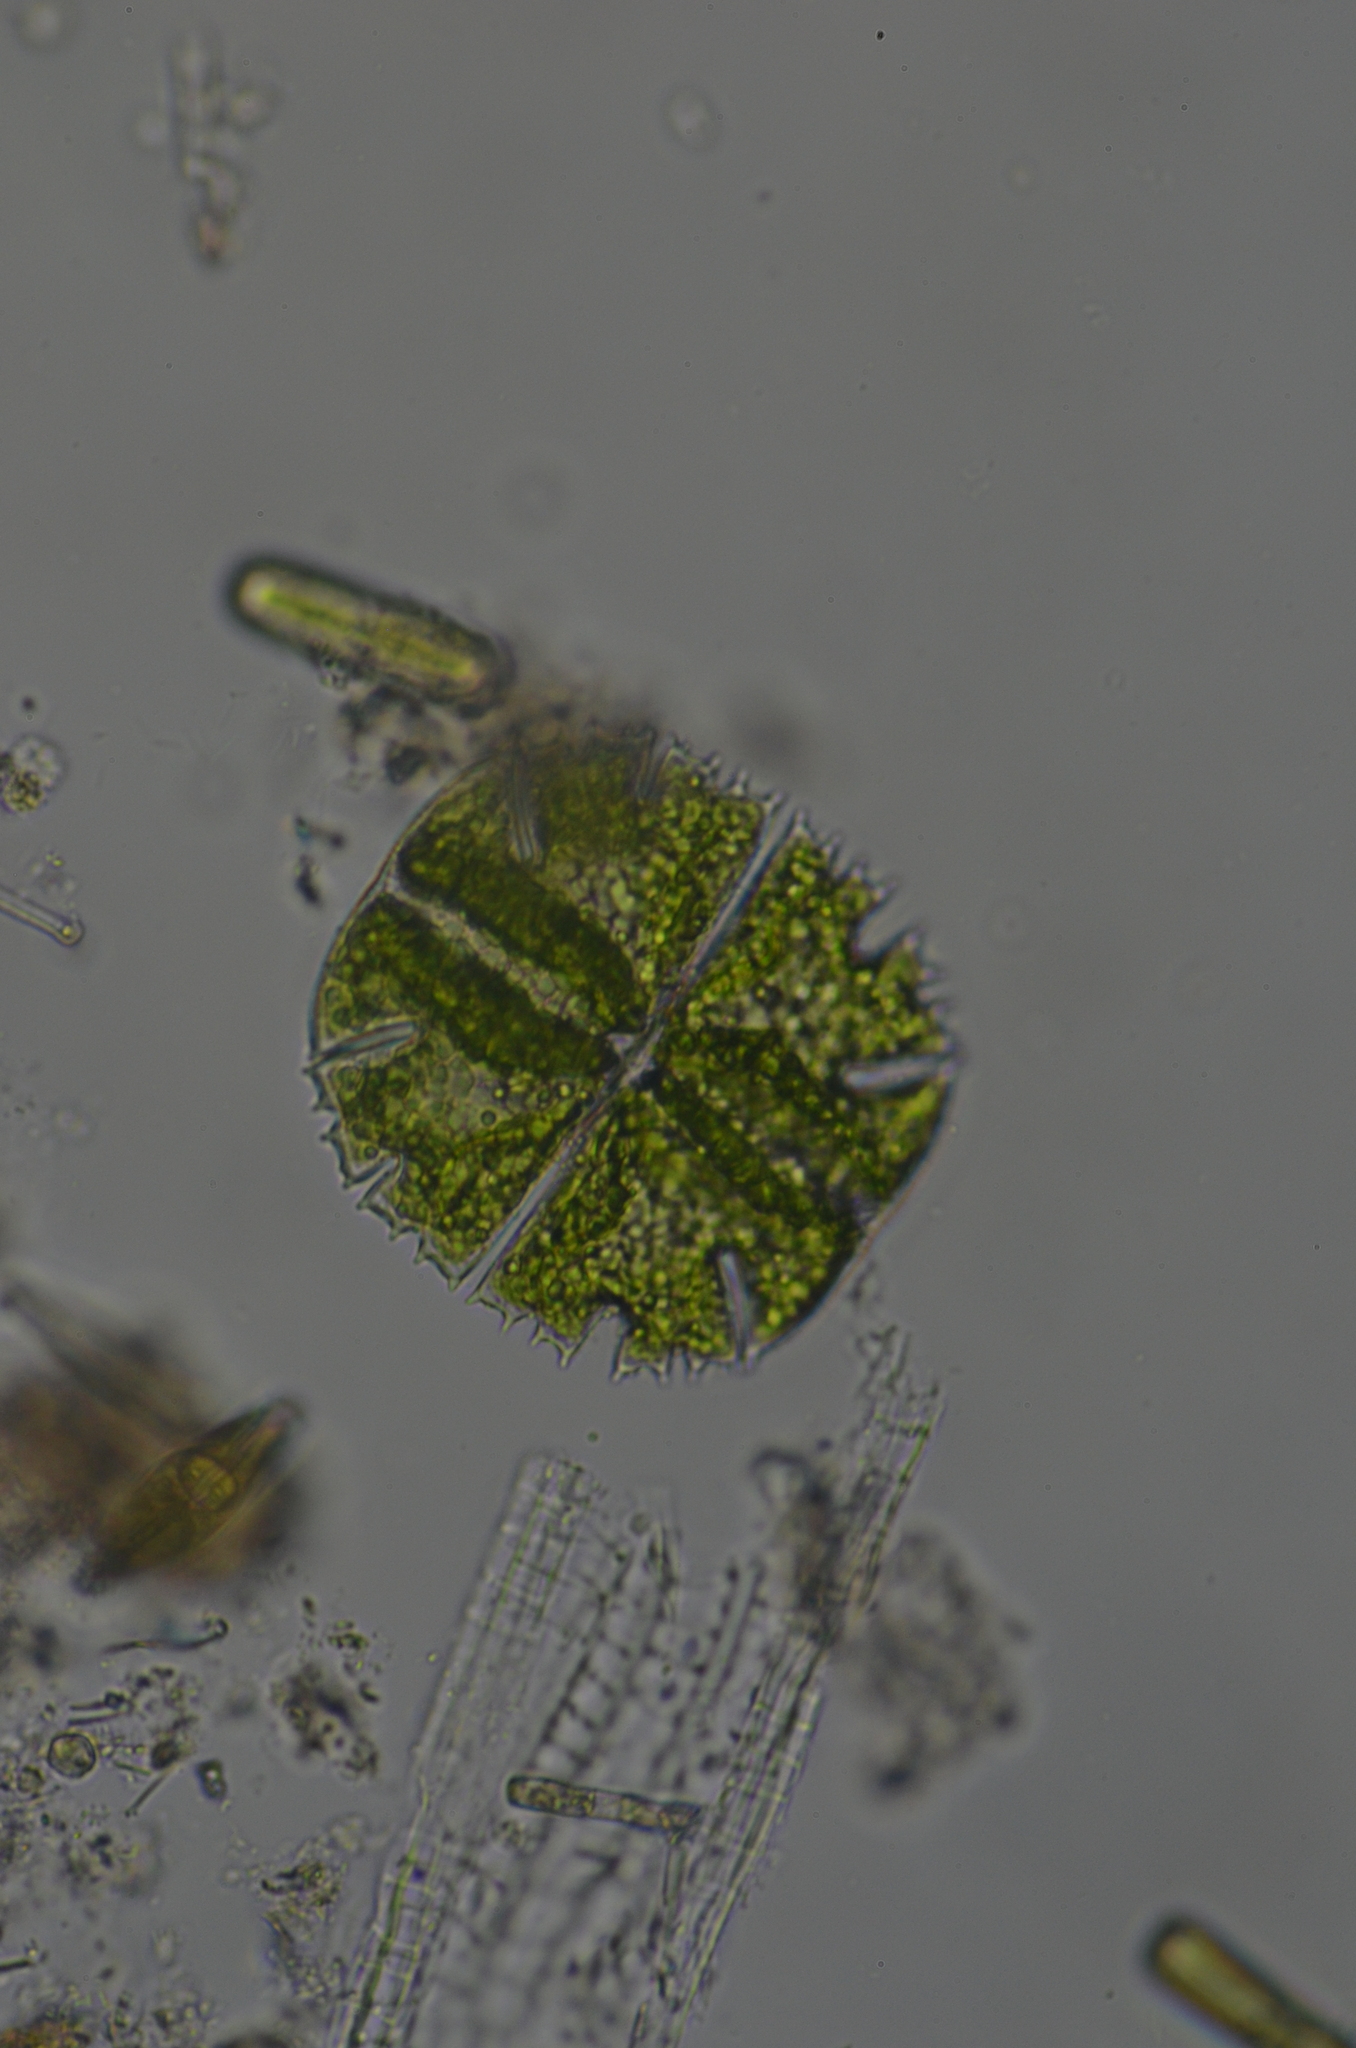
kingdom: Plantae
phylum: Charophyta
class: Conjugatophyceae
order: Desmidiales
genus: Micrasterias
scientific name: Micrasterias truncata
